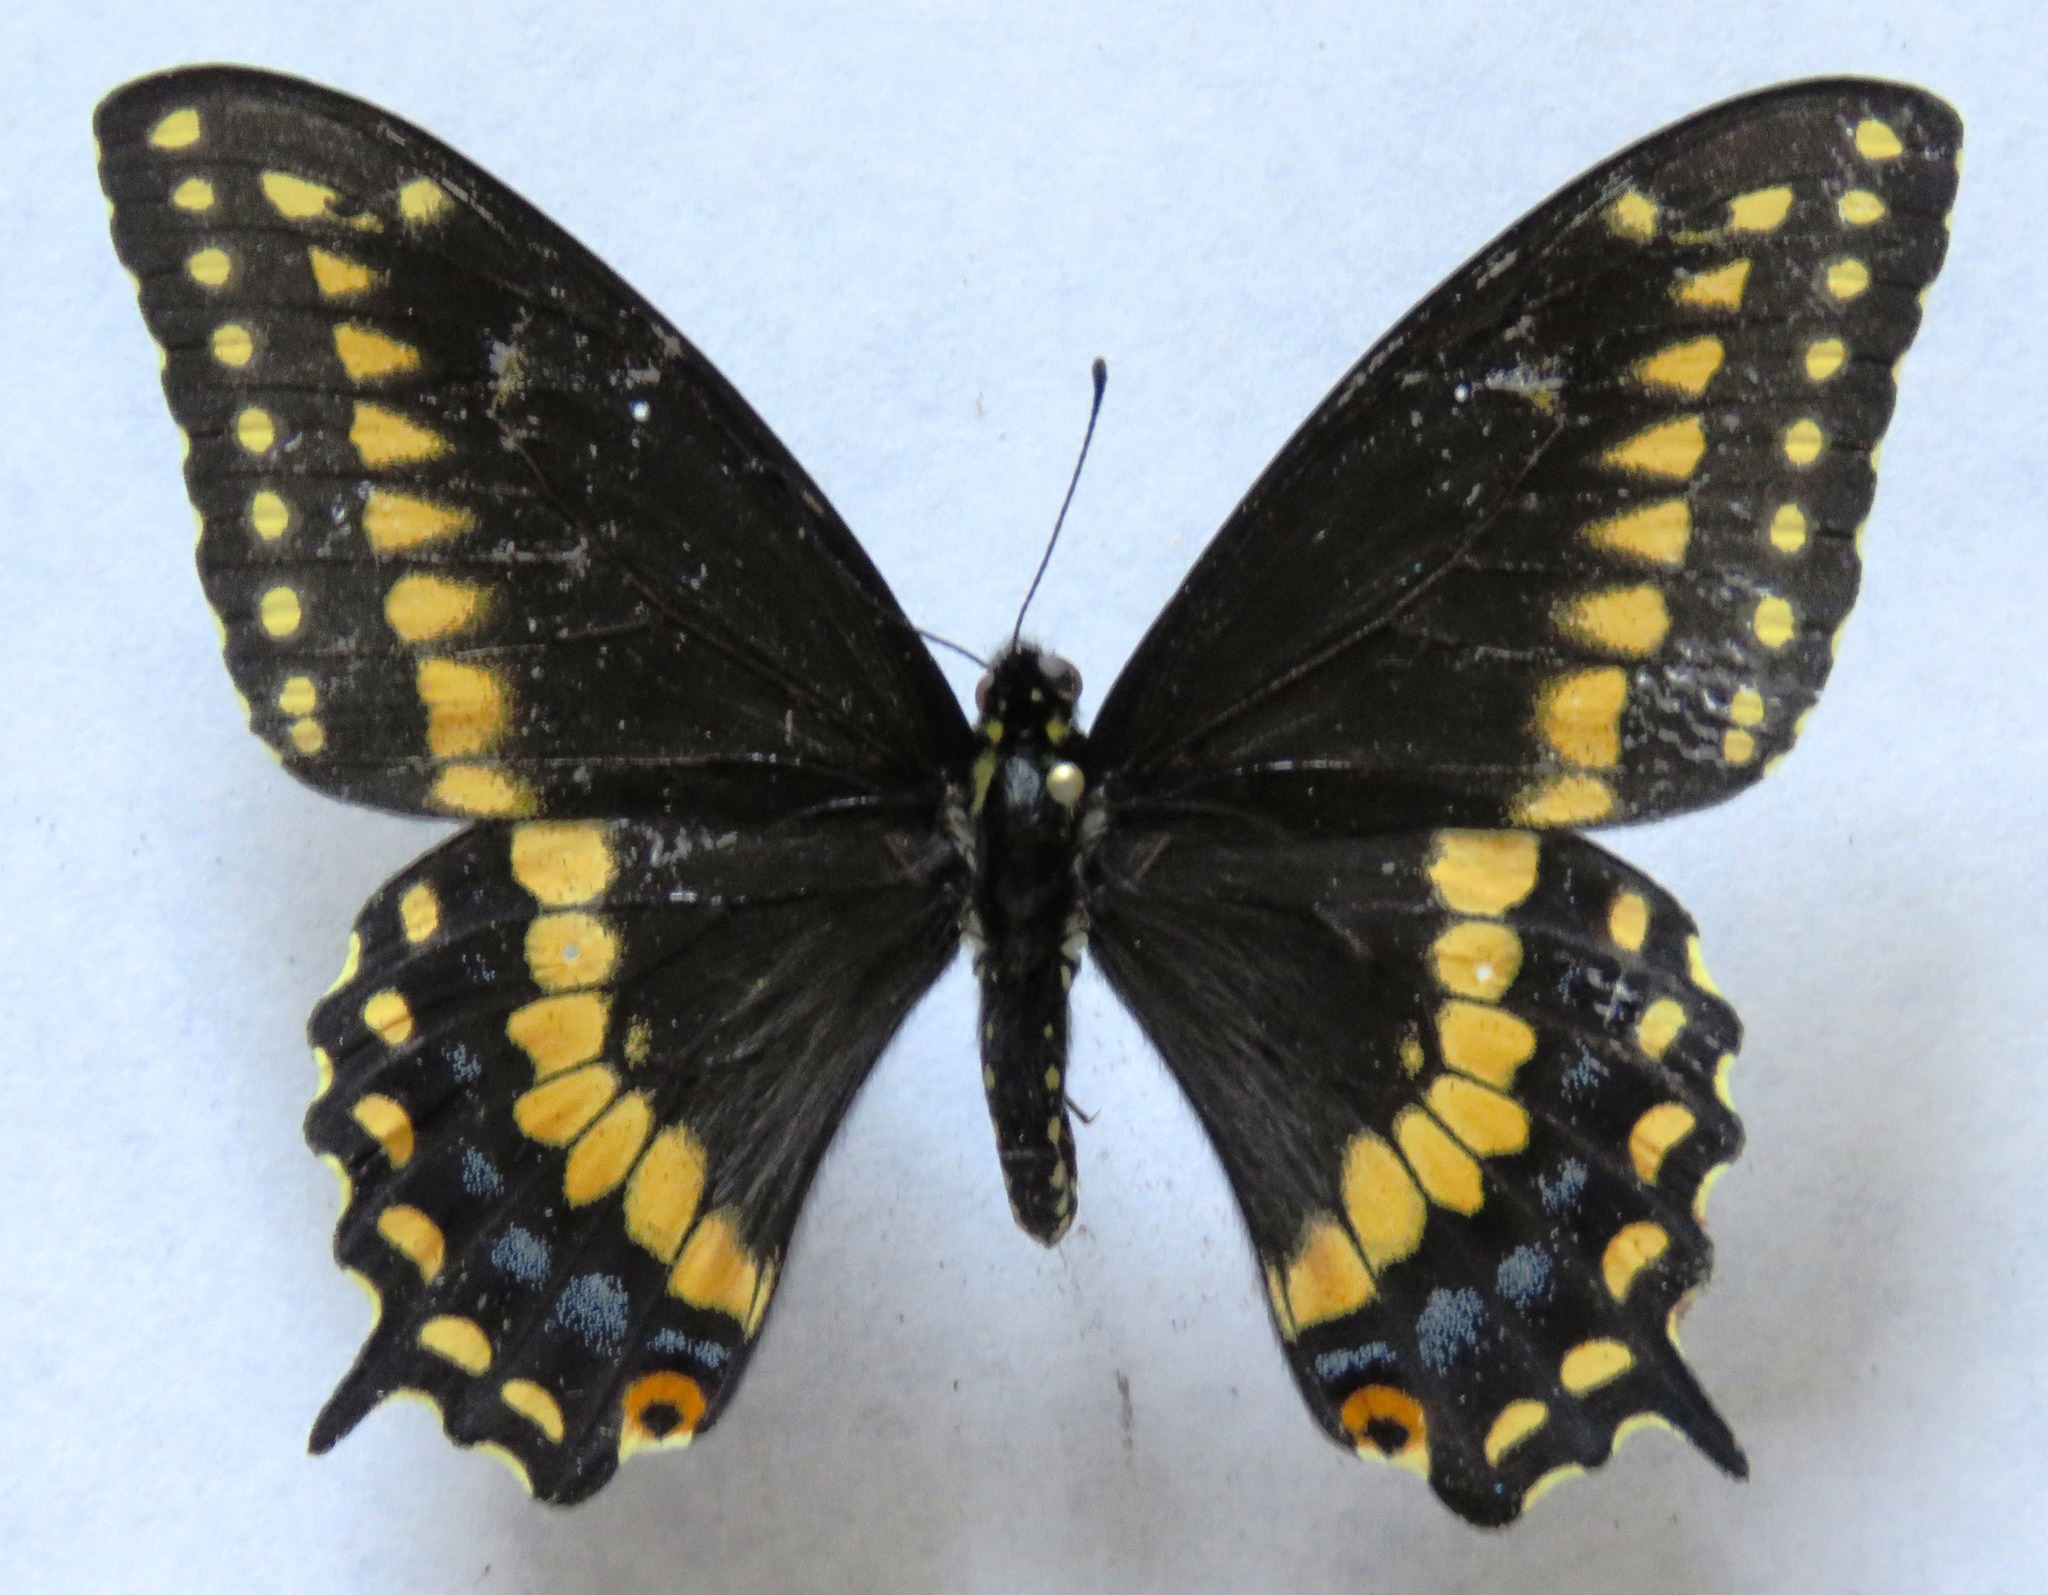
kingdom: Animalia
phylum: Arthropoda
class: Insecta
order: Lepidoptera
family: Papilionidae
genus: Papilio
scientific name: Papilio polyxenes
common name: Black swallowtail
